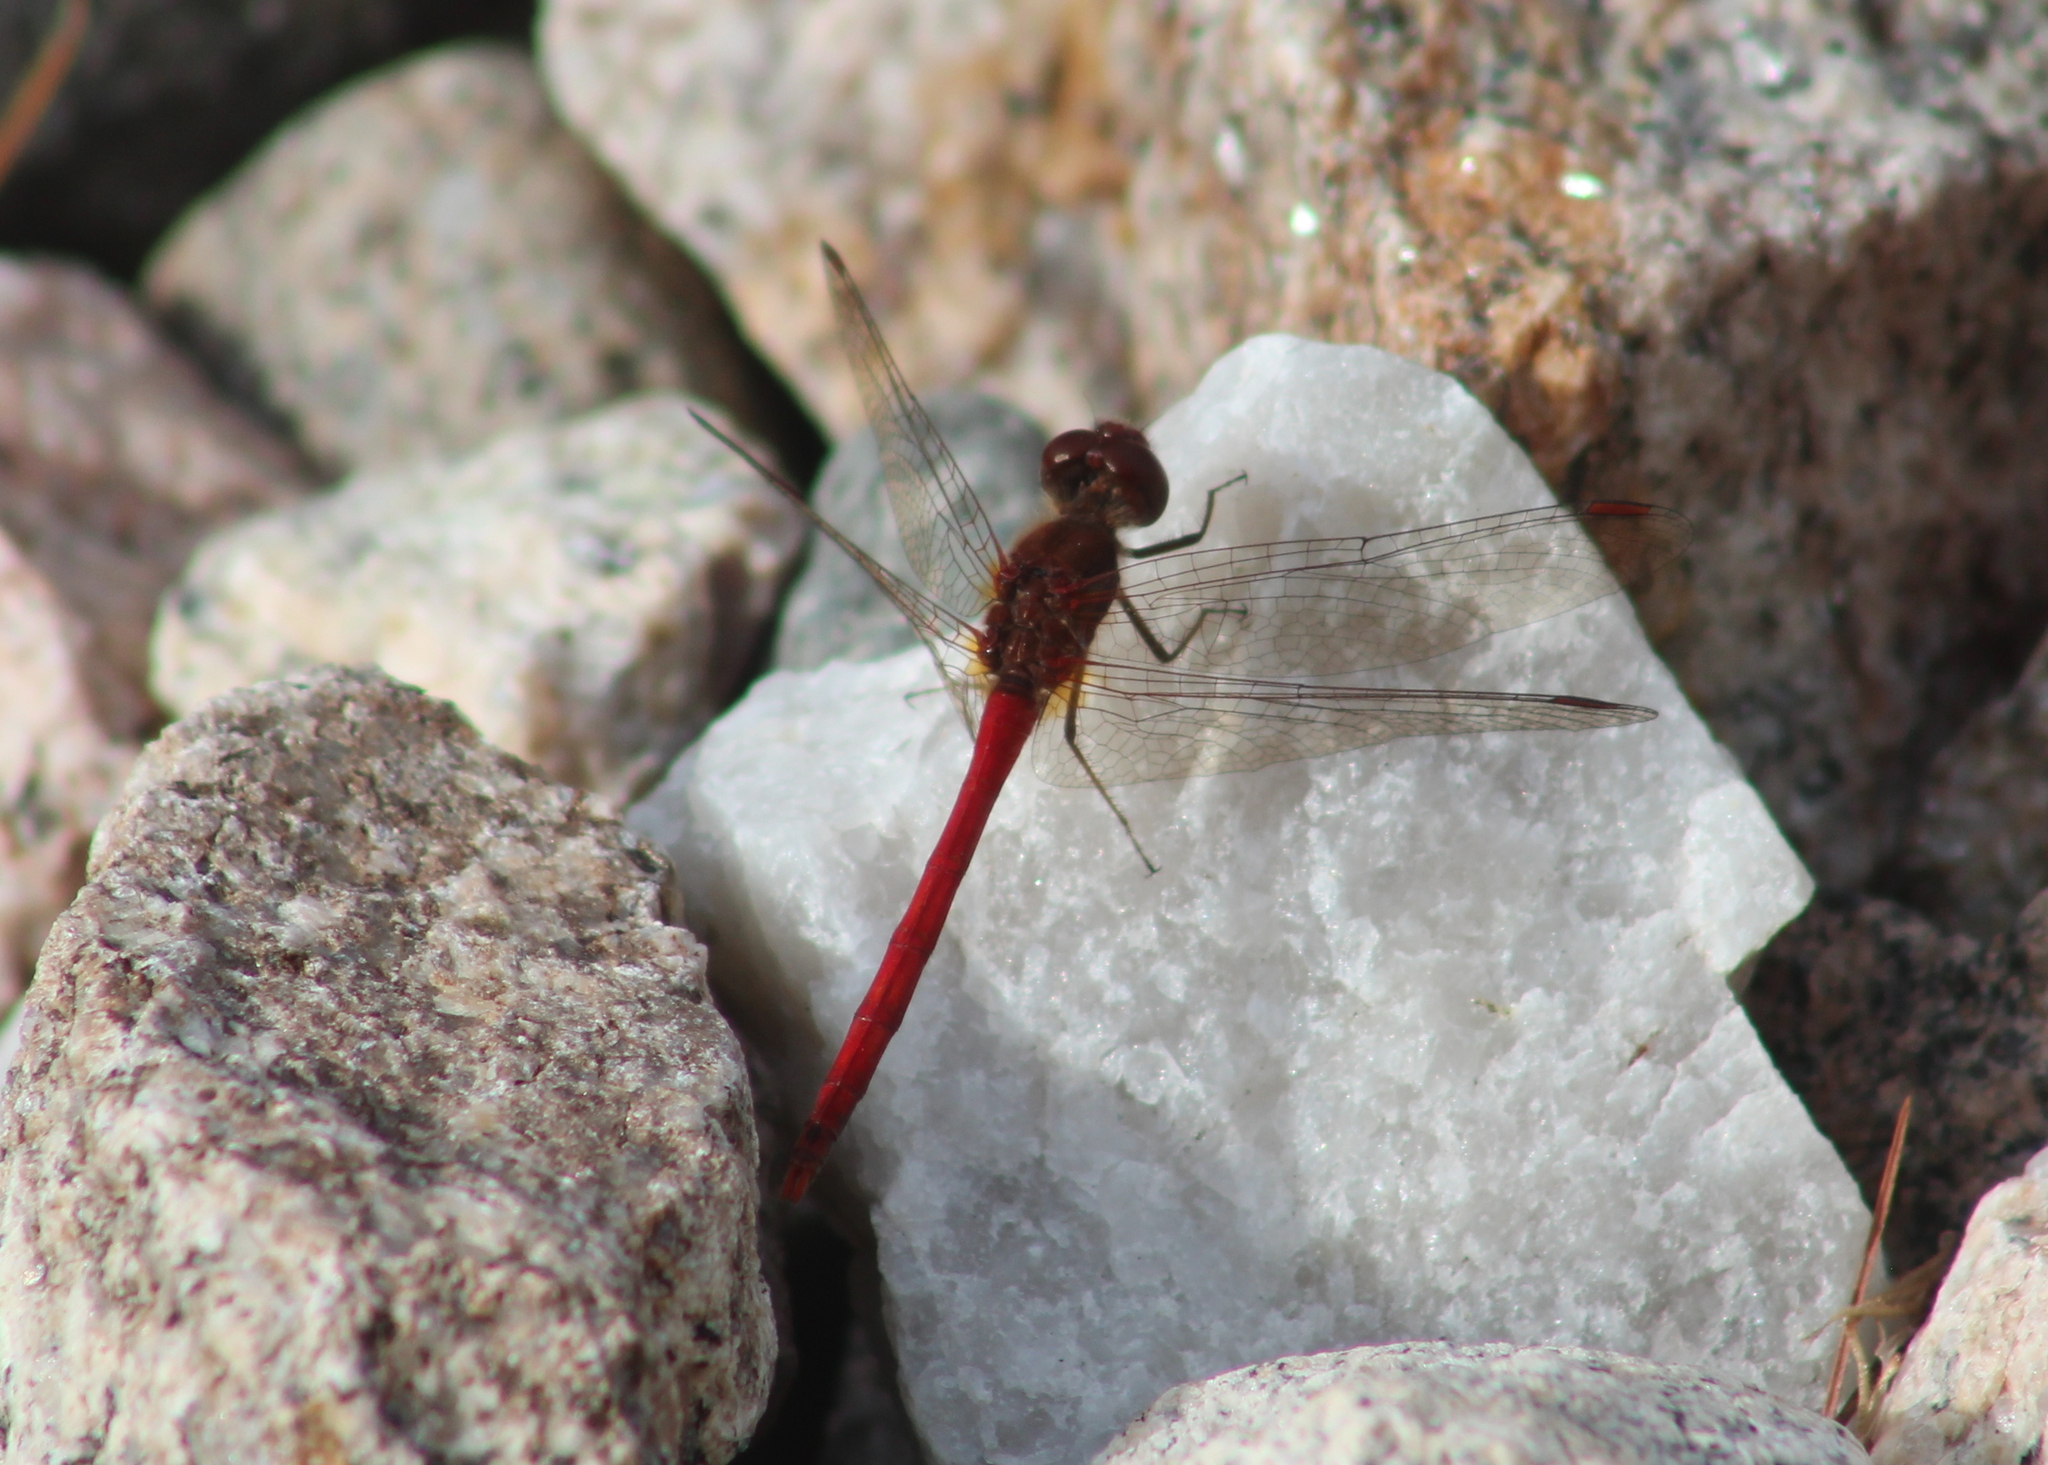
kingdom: Animalia
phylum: Arthropoda
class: Insecta
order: Odonata
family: Libellulidae
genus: Sympetrum
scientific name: Sympetrum vicinum
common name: Autumn meadowhawk
